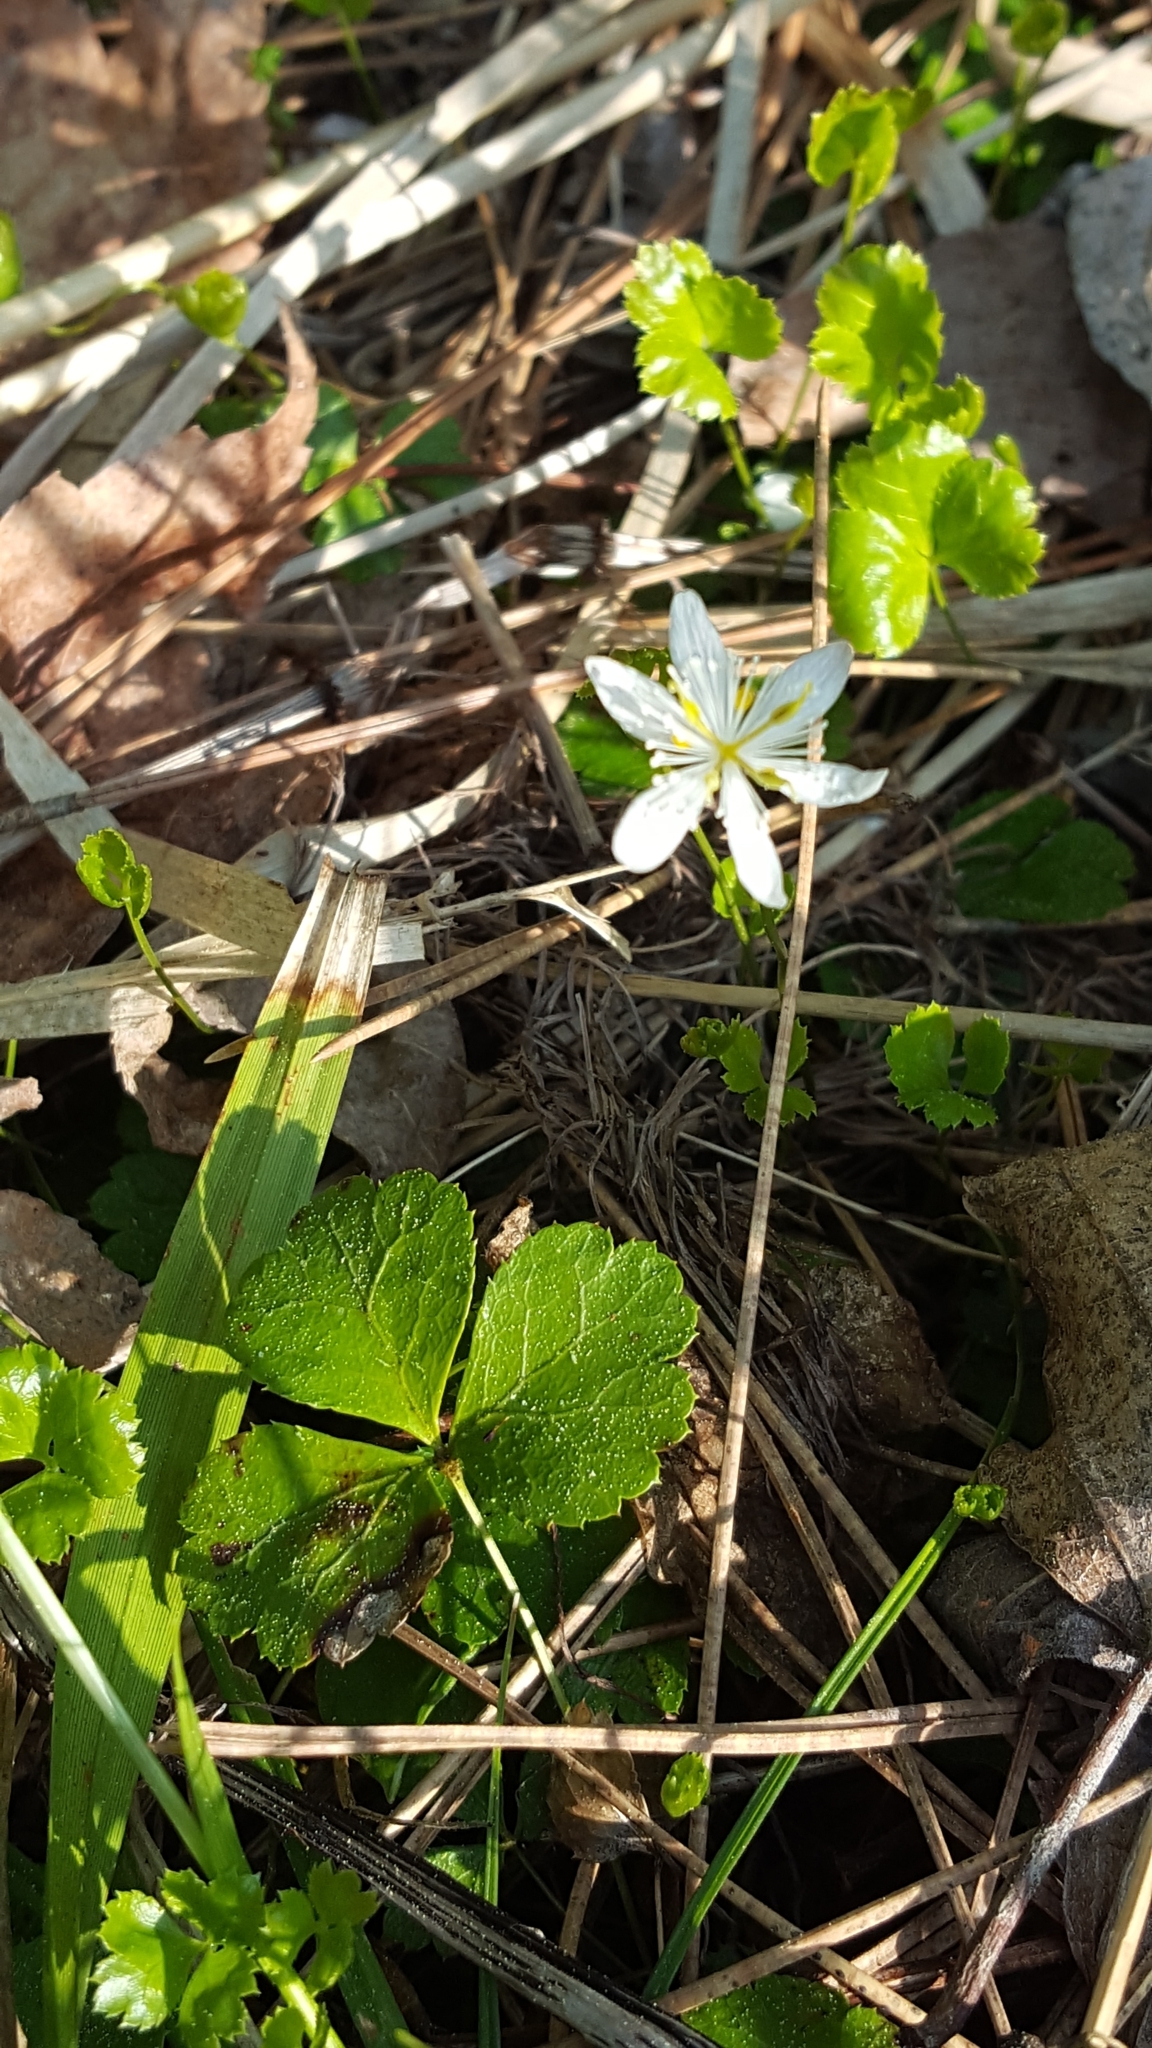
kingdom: Plantae
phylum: Tracheophyta
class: Magnoliopsida
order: Ranunculales
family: Ranunculaceae
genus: Coptis
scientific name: Coptis trifolia
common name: Canker-root
